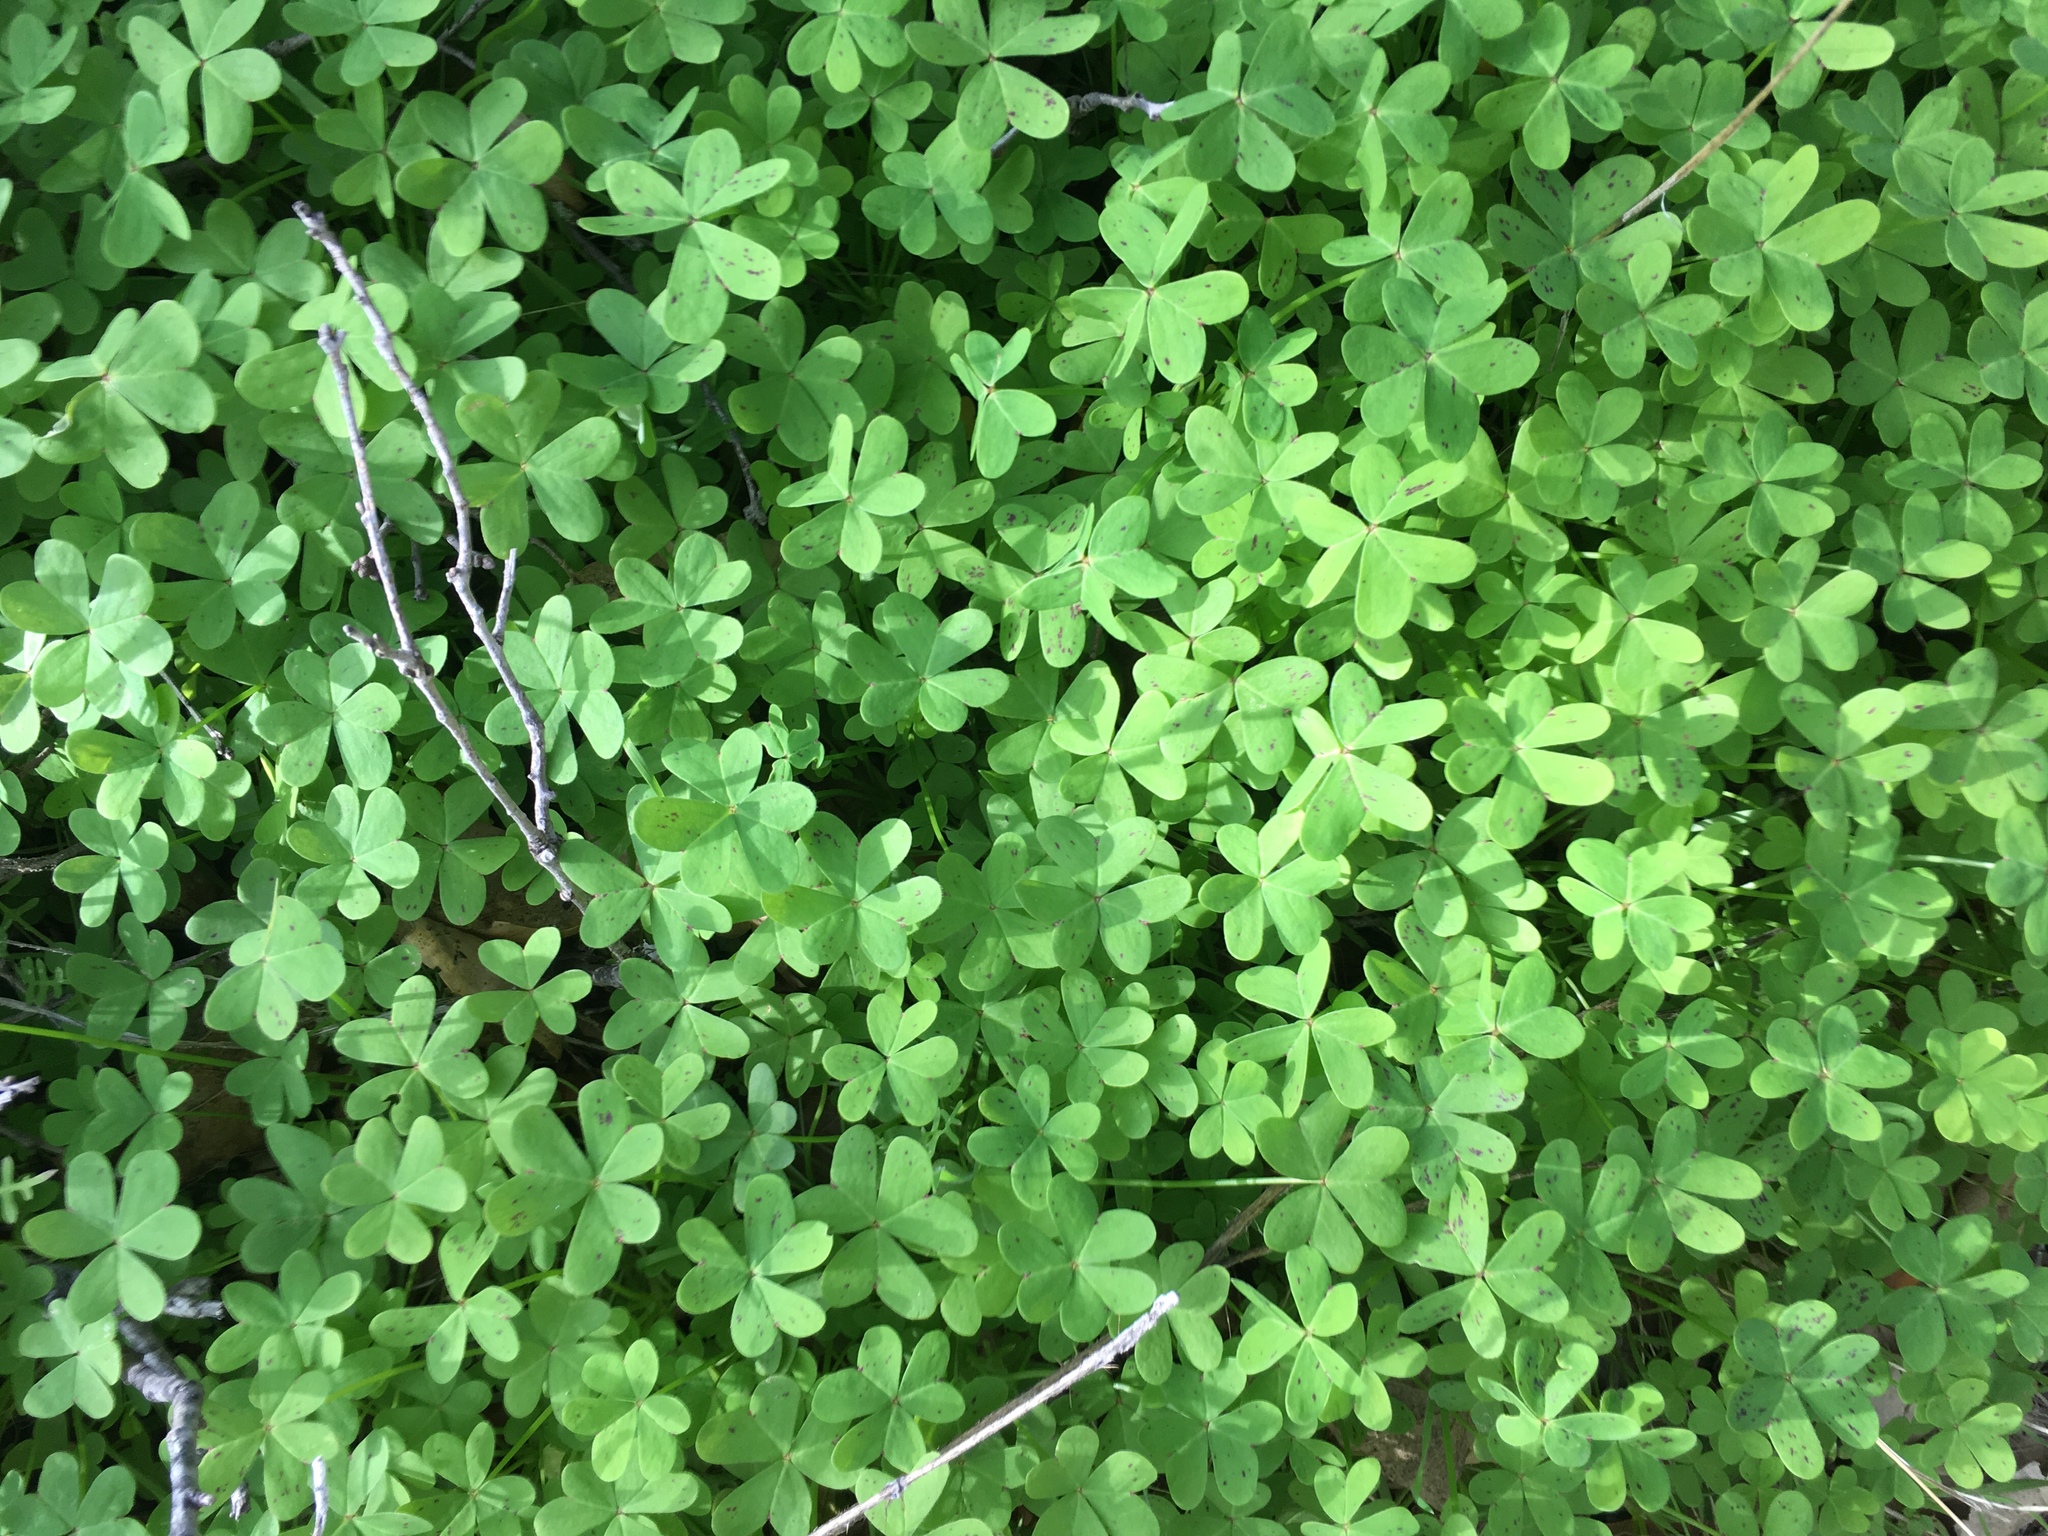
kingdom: Plantae
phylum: Tracheophyta
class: Magnoliopsida
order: Oxalidales
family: Oxalidaceae
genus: Oxalis
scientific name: Oxalis pes-caprae
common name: Bermuda-buttercup
